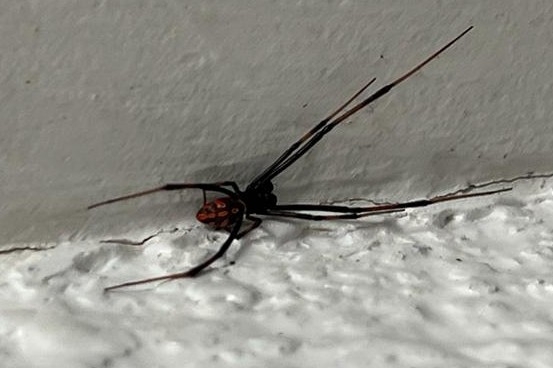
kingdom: Animalia
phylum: Arthropoda
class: Arachnida
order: Araneae
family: Theridiidae
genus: Latrodectus
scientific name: Latrodectus
